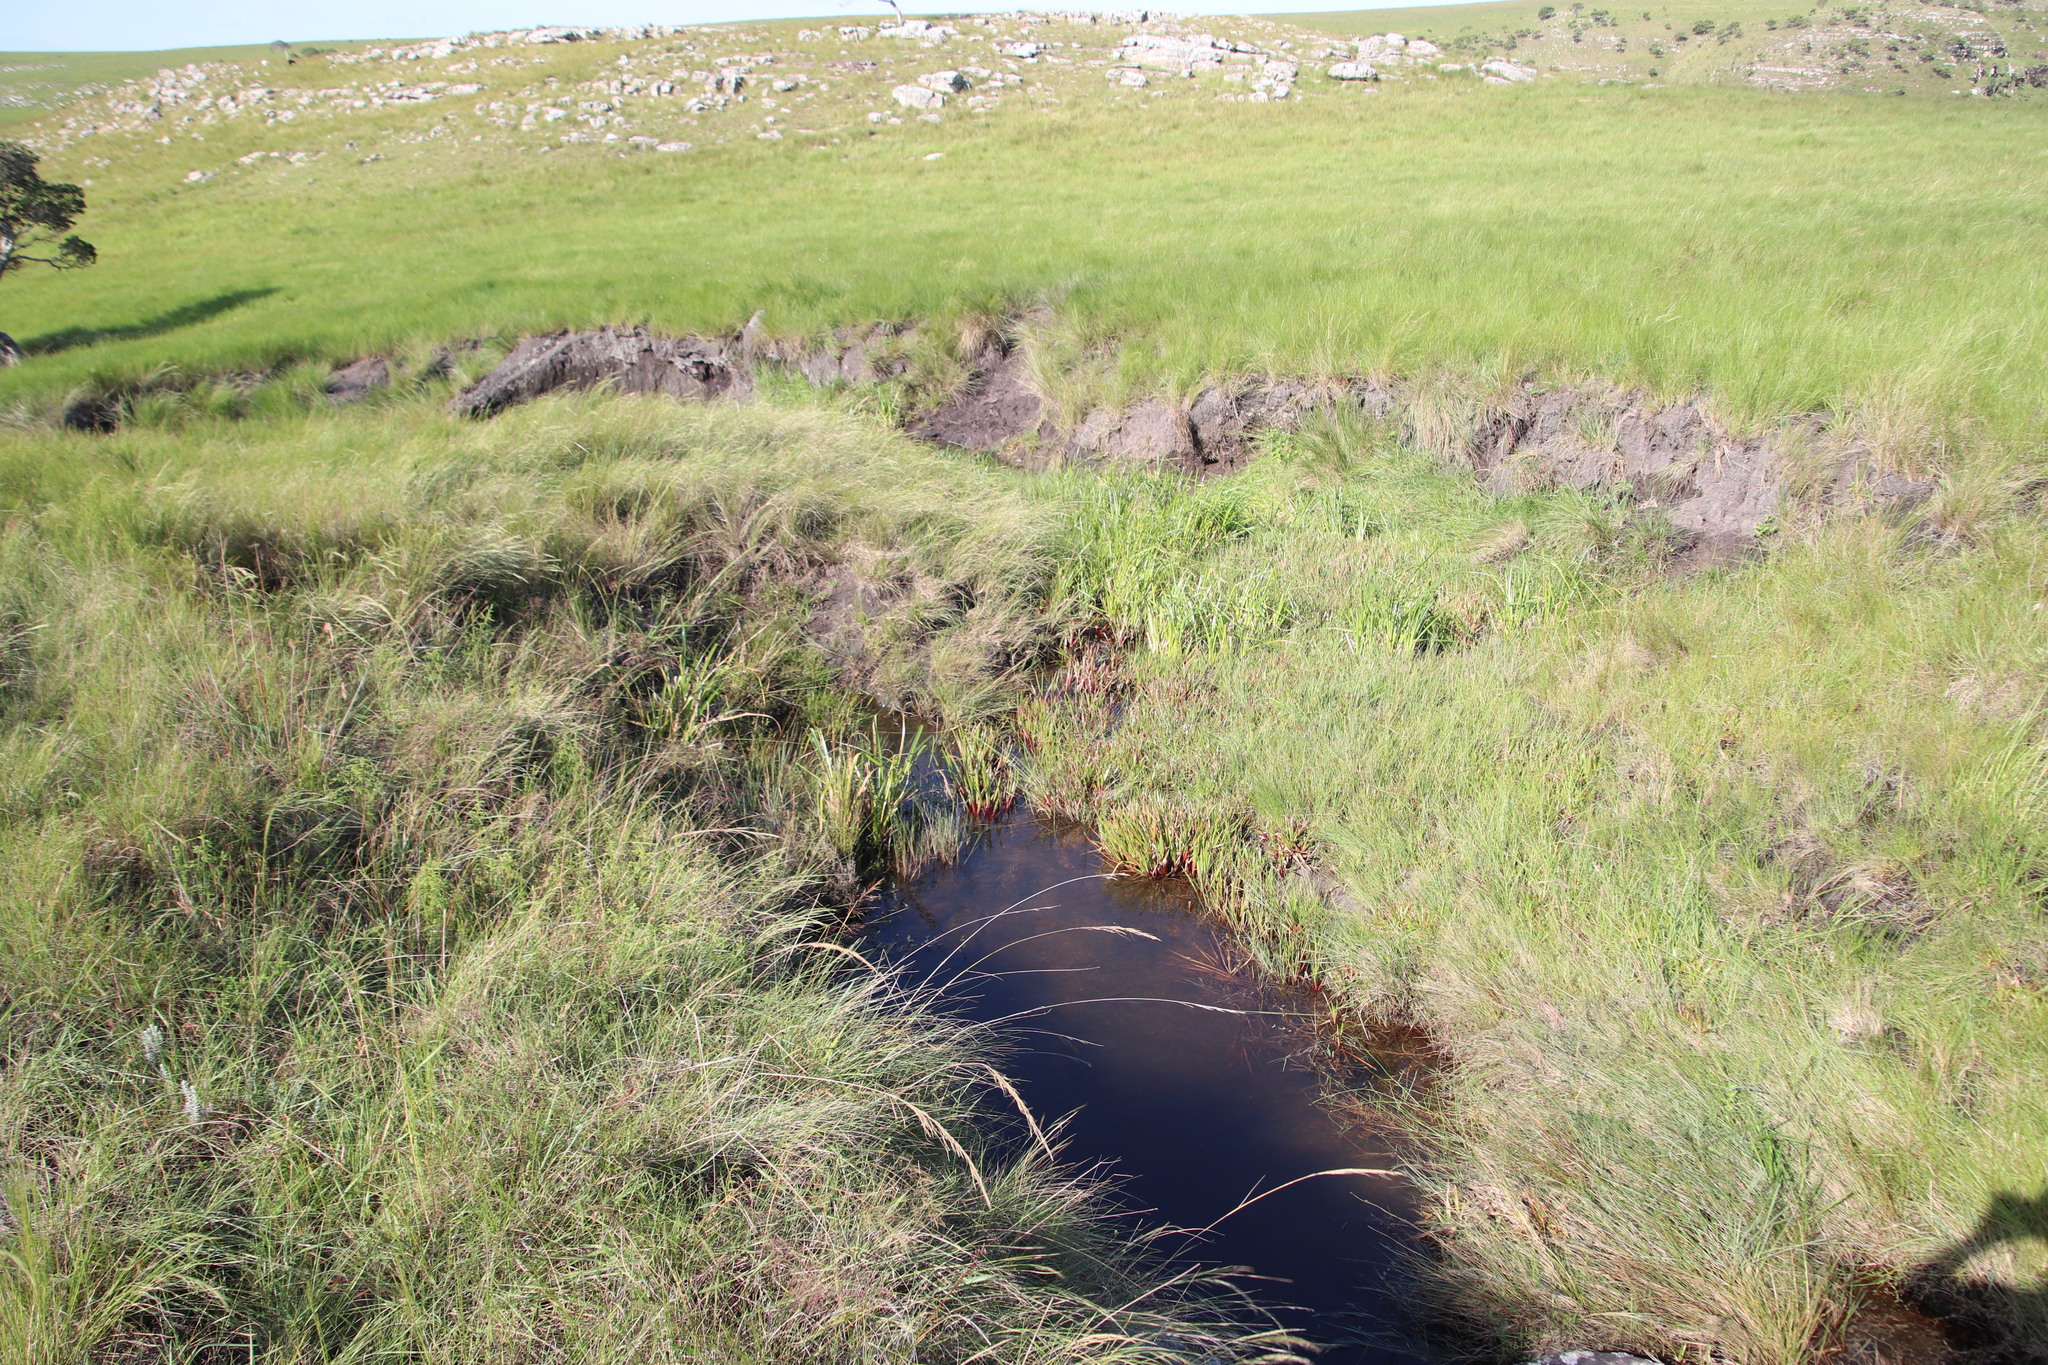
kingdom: Plantae
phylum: Tracheophyta
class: Liliopsida
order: Poales
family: Juncaceae
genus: Juncus
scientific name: Juncus lomatophyllus
